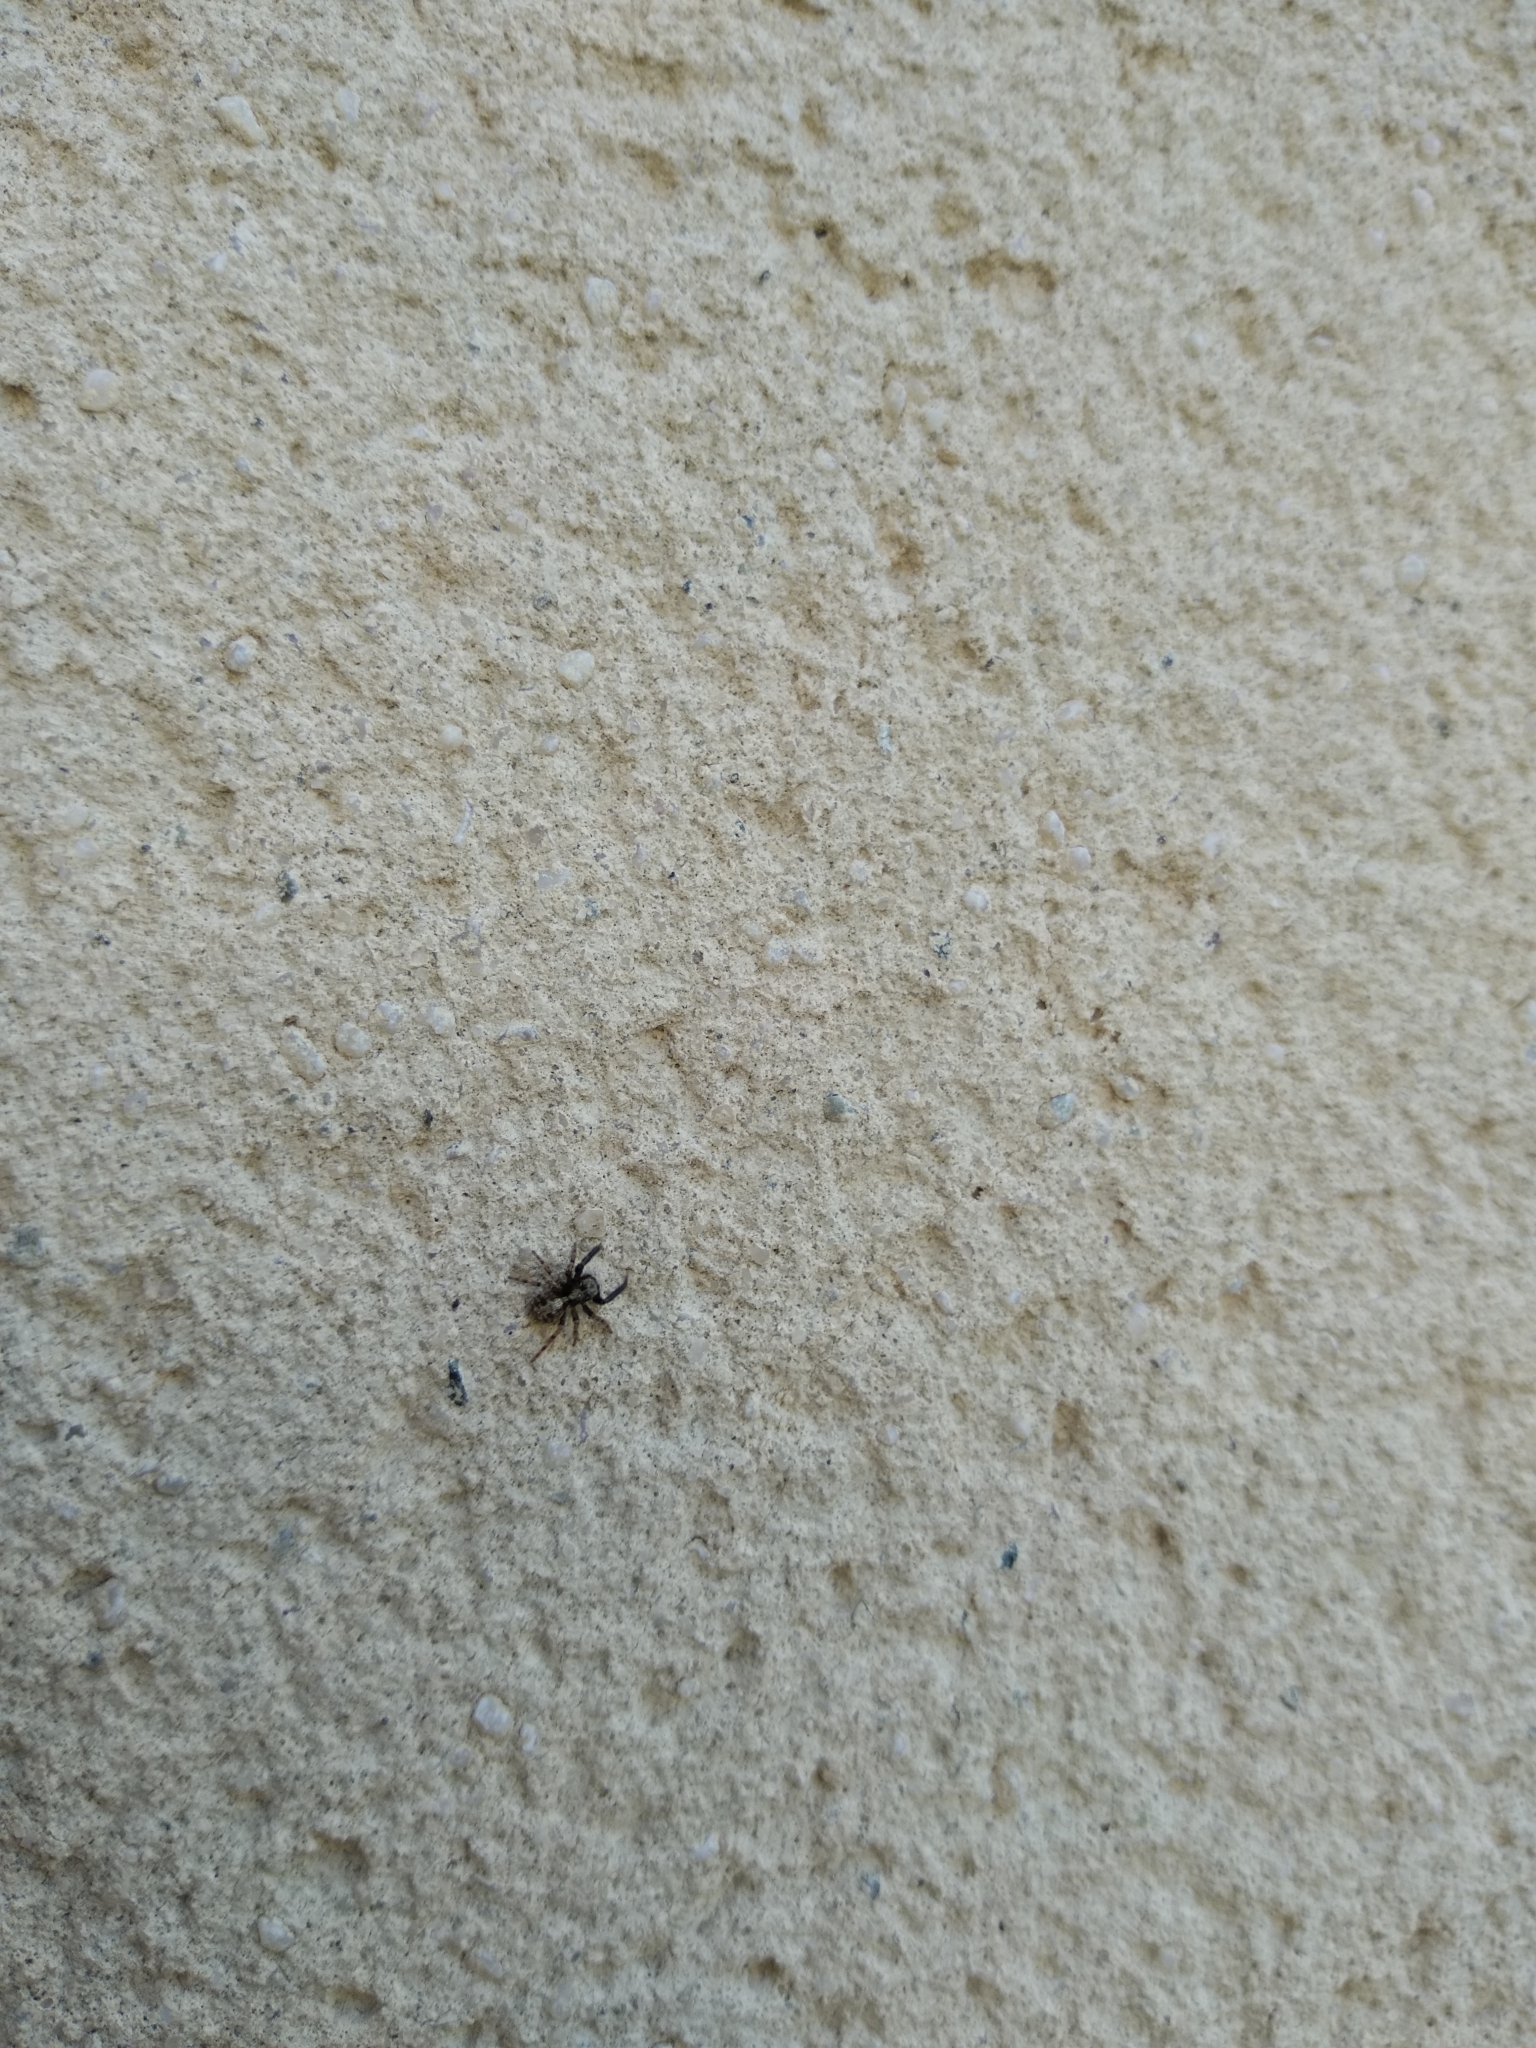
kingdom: Animalia
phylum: Arthropoda
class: Arachnida
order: Araneae
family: Salticidae
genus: Pseudeuophrys
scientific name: Pseudeuophrys lanigera
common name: Jumping spider
